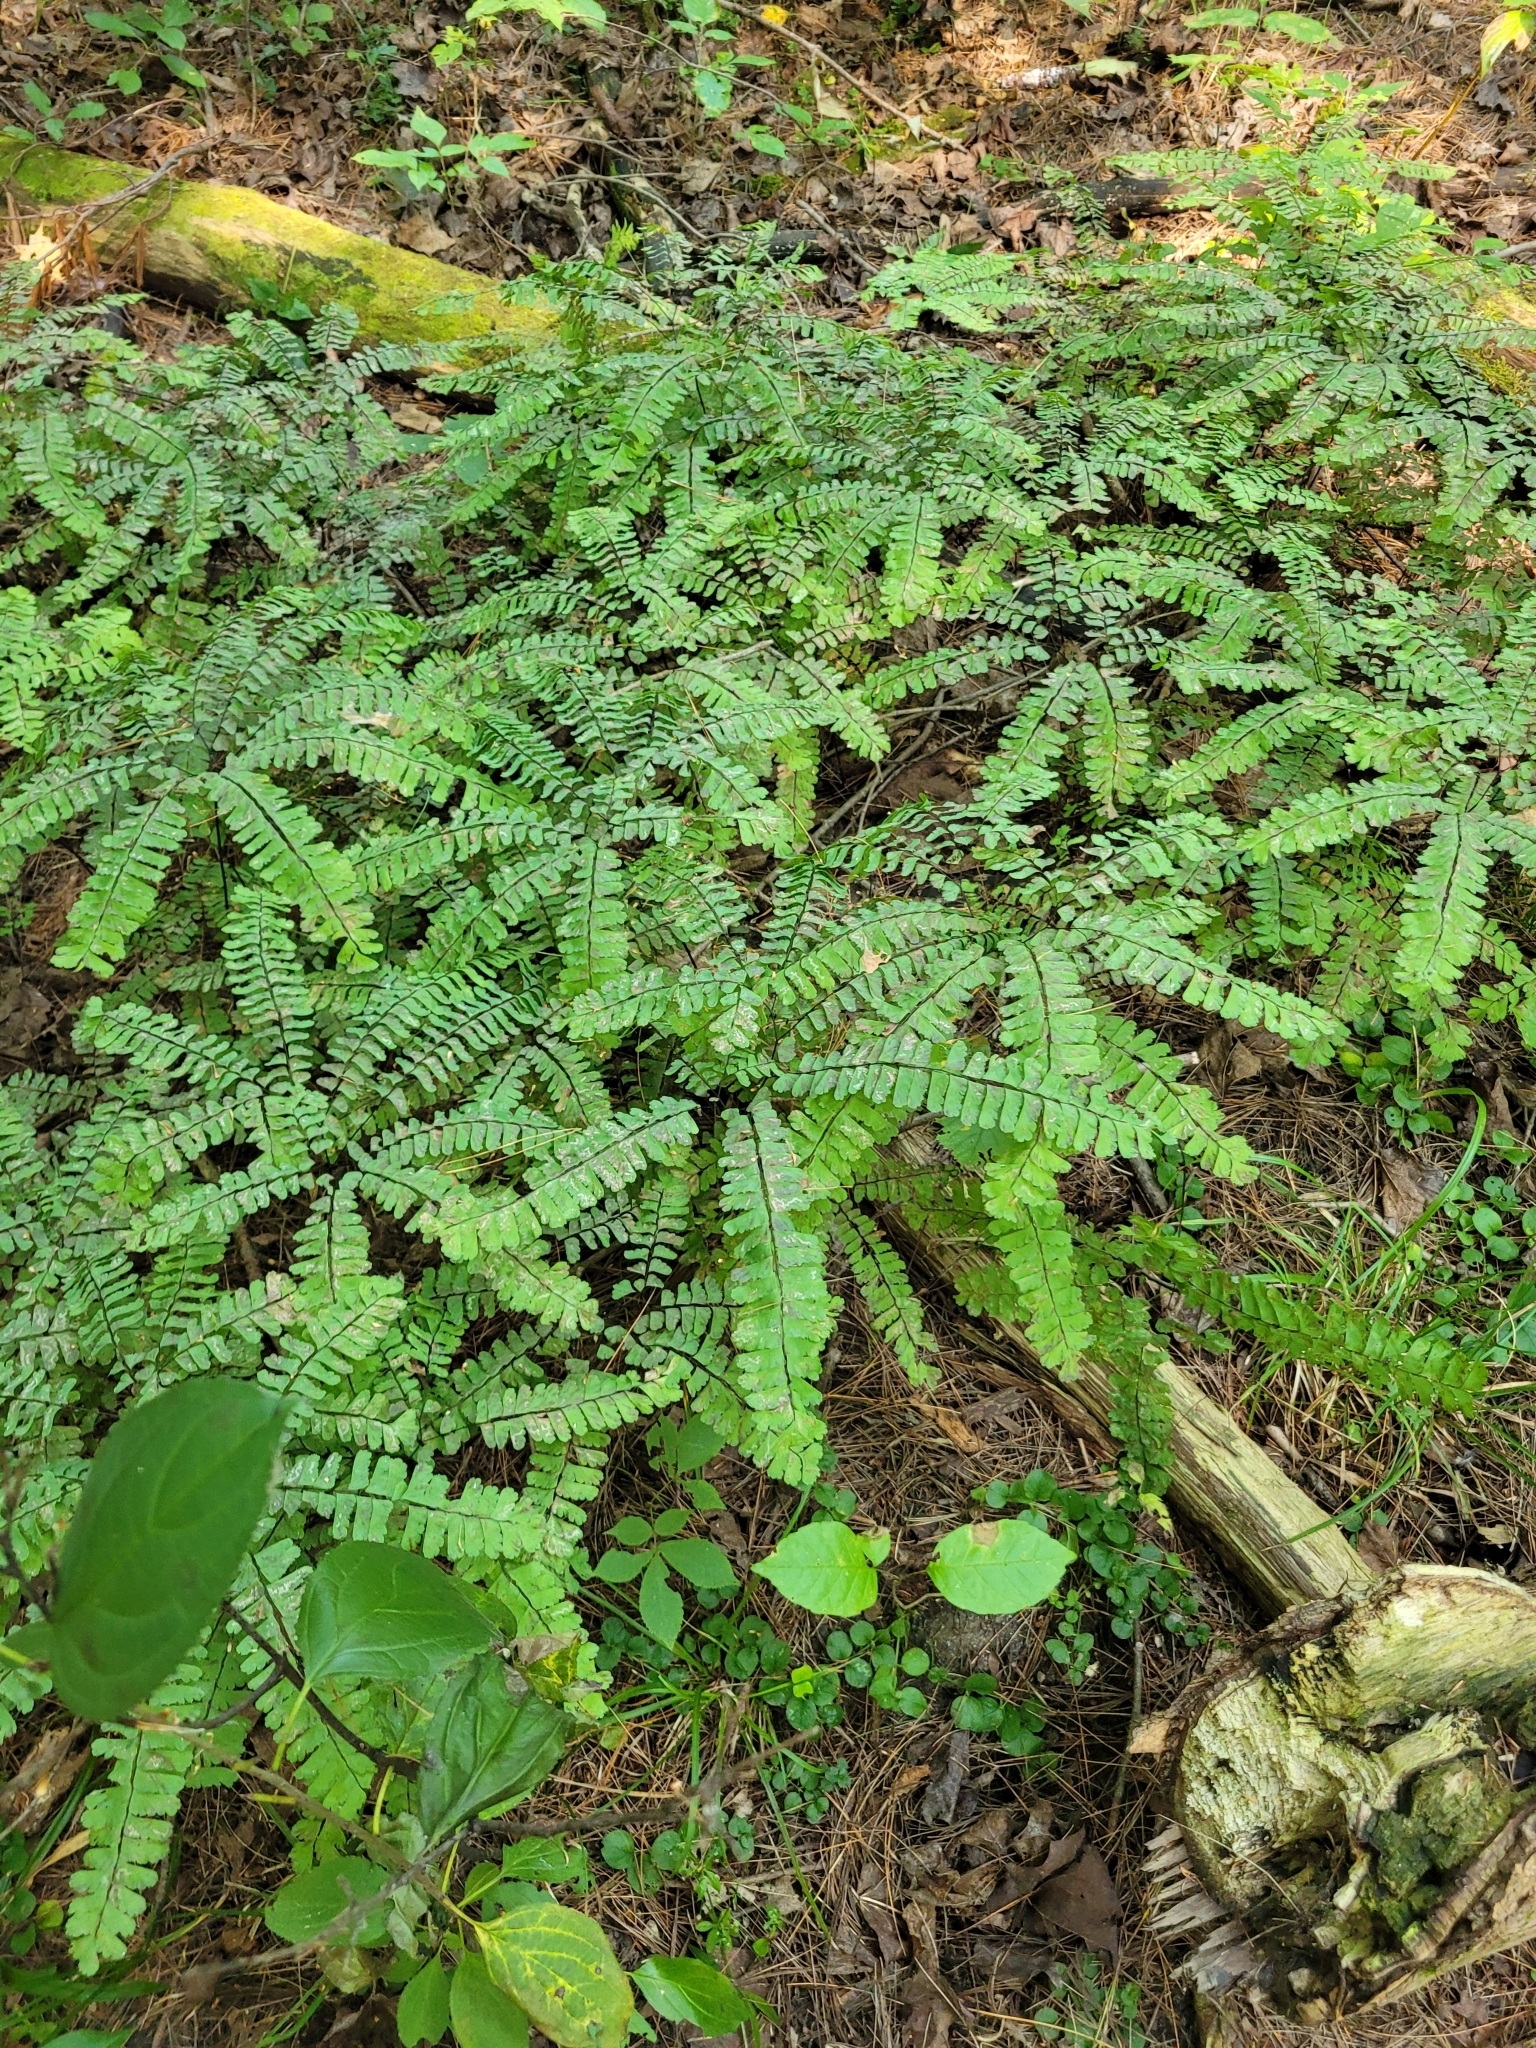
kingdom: Plantae
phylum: Tracheophyta
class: Polypodiopsida
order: Polypodiales
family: Pteridaceae
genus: Adiantum
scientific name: Adiantum pedatum
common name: Five-finger fern
